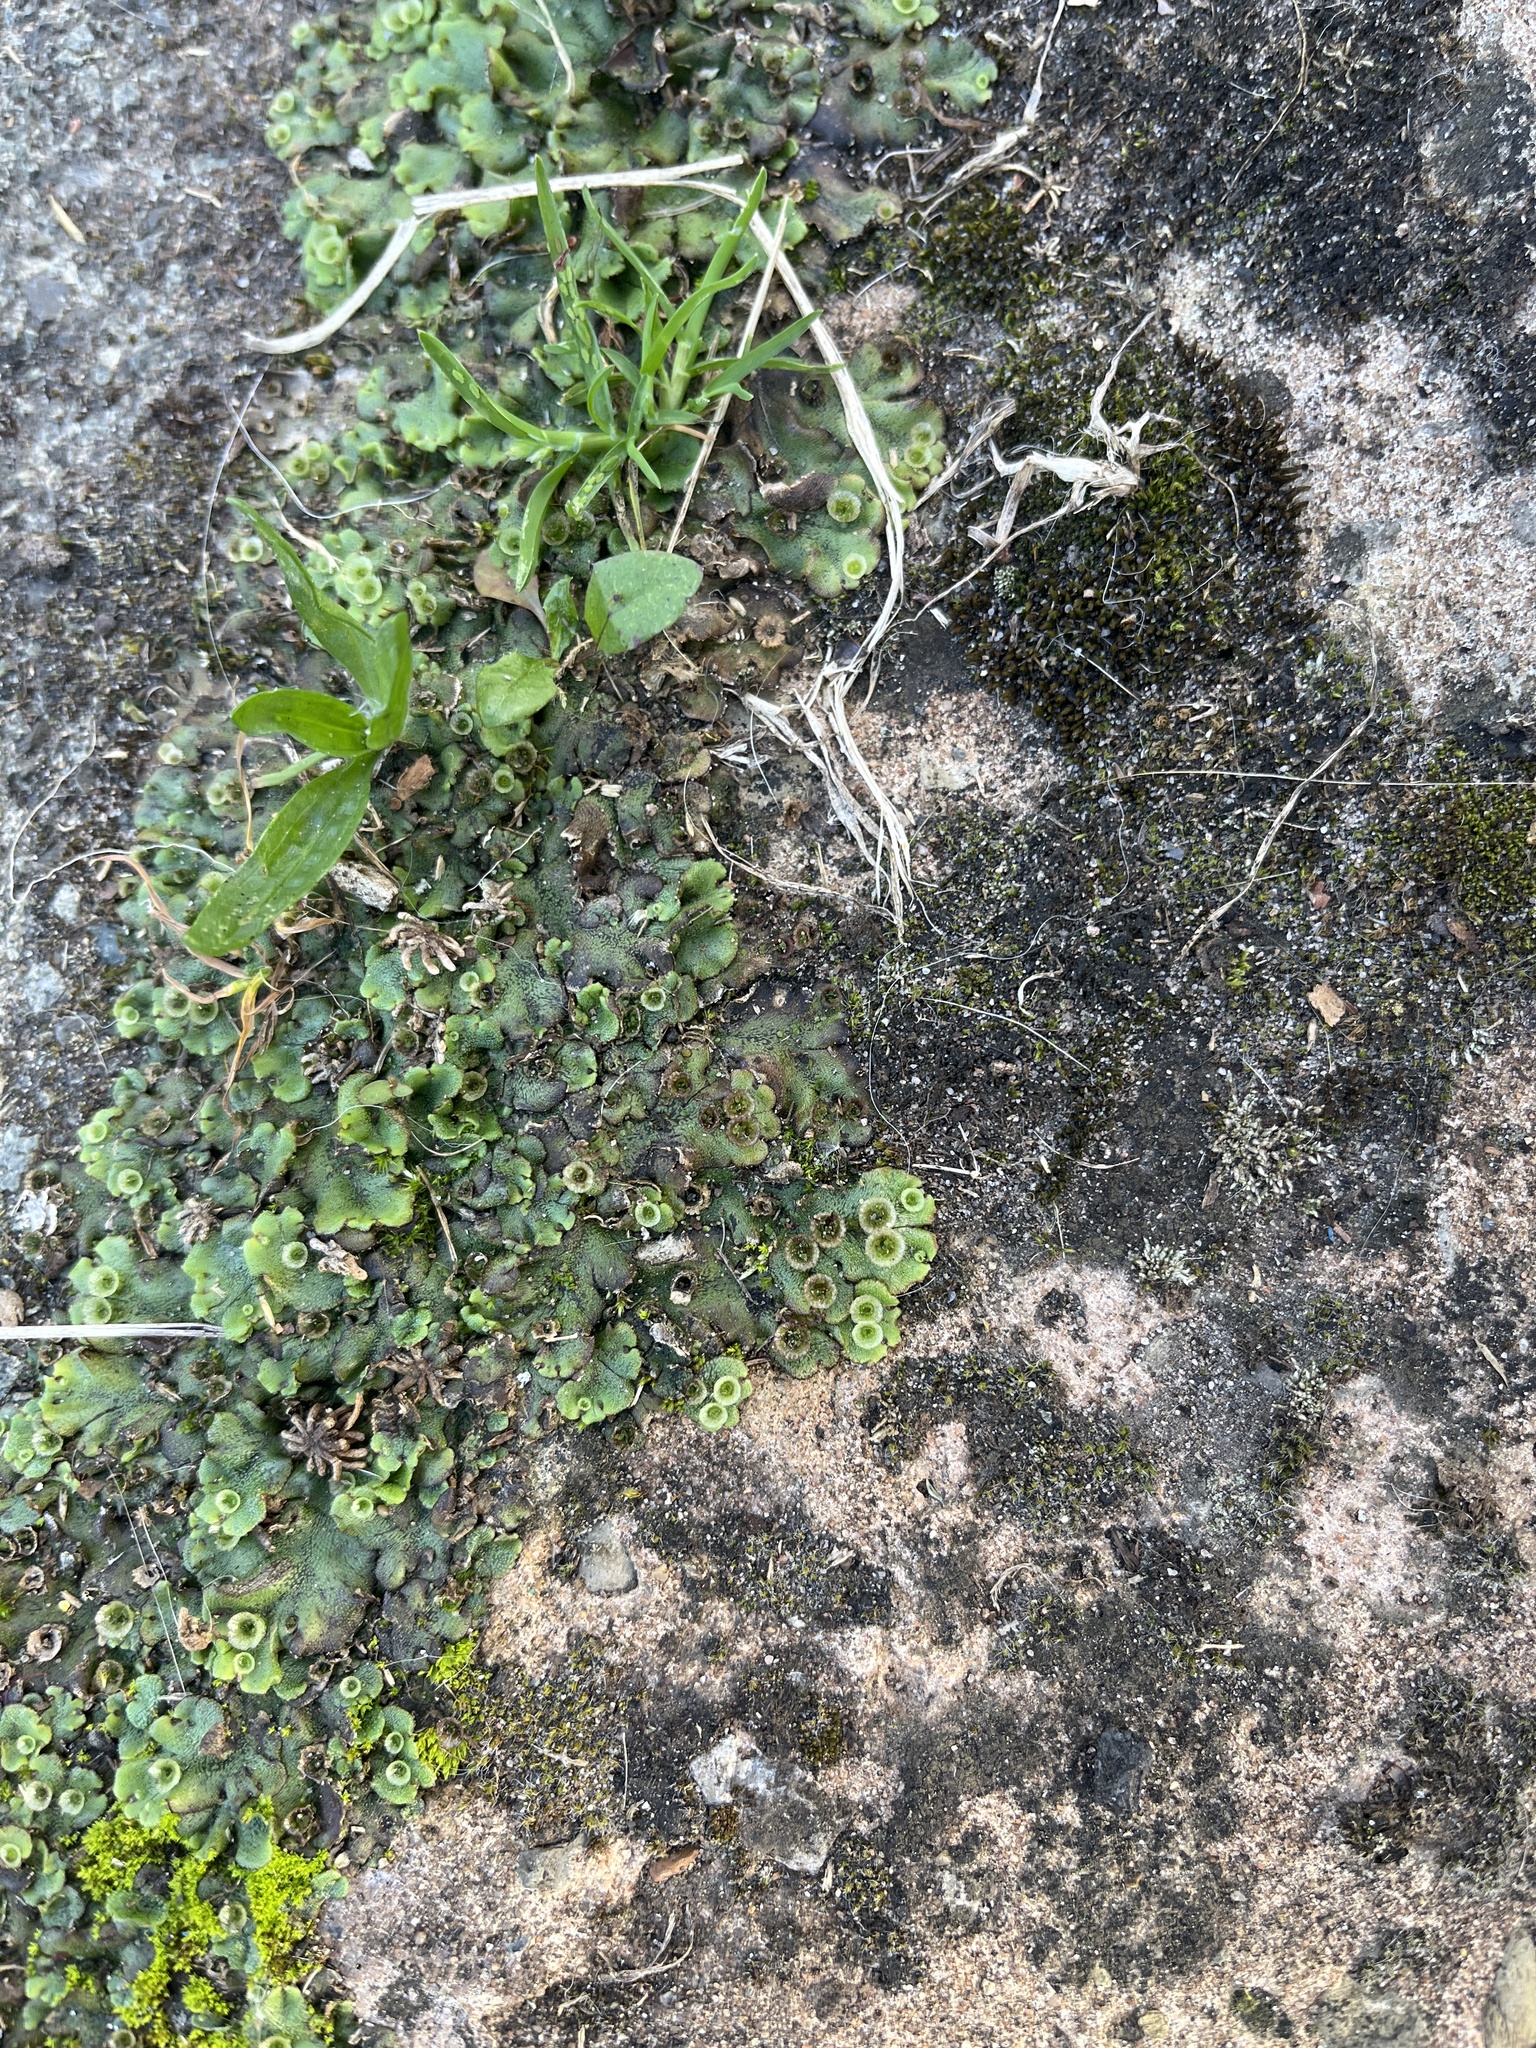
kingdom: Plantae
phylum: Marchantiophyta
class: Marchantiopsida
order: Marchantiales
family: Marchantiaceae
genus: Marchantia
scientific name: Marchantia polymorpha
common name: Common liverwort
